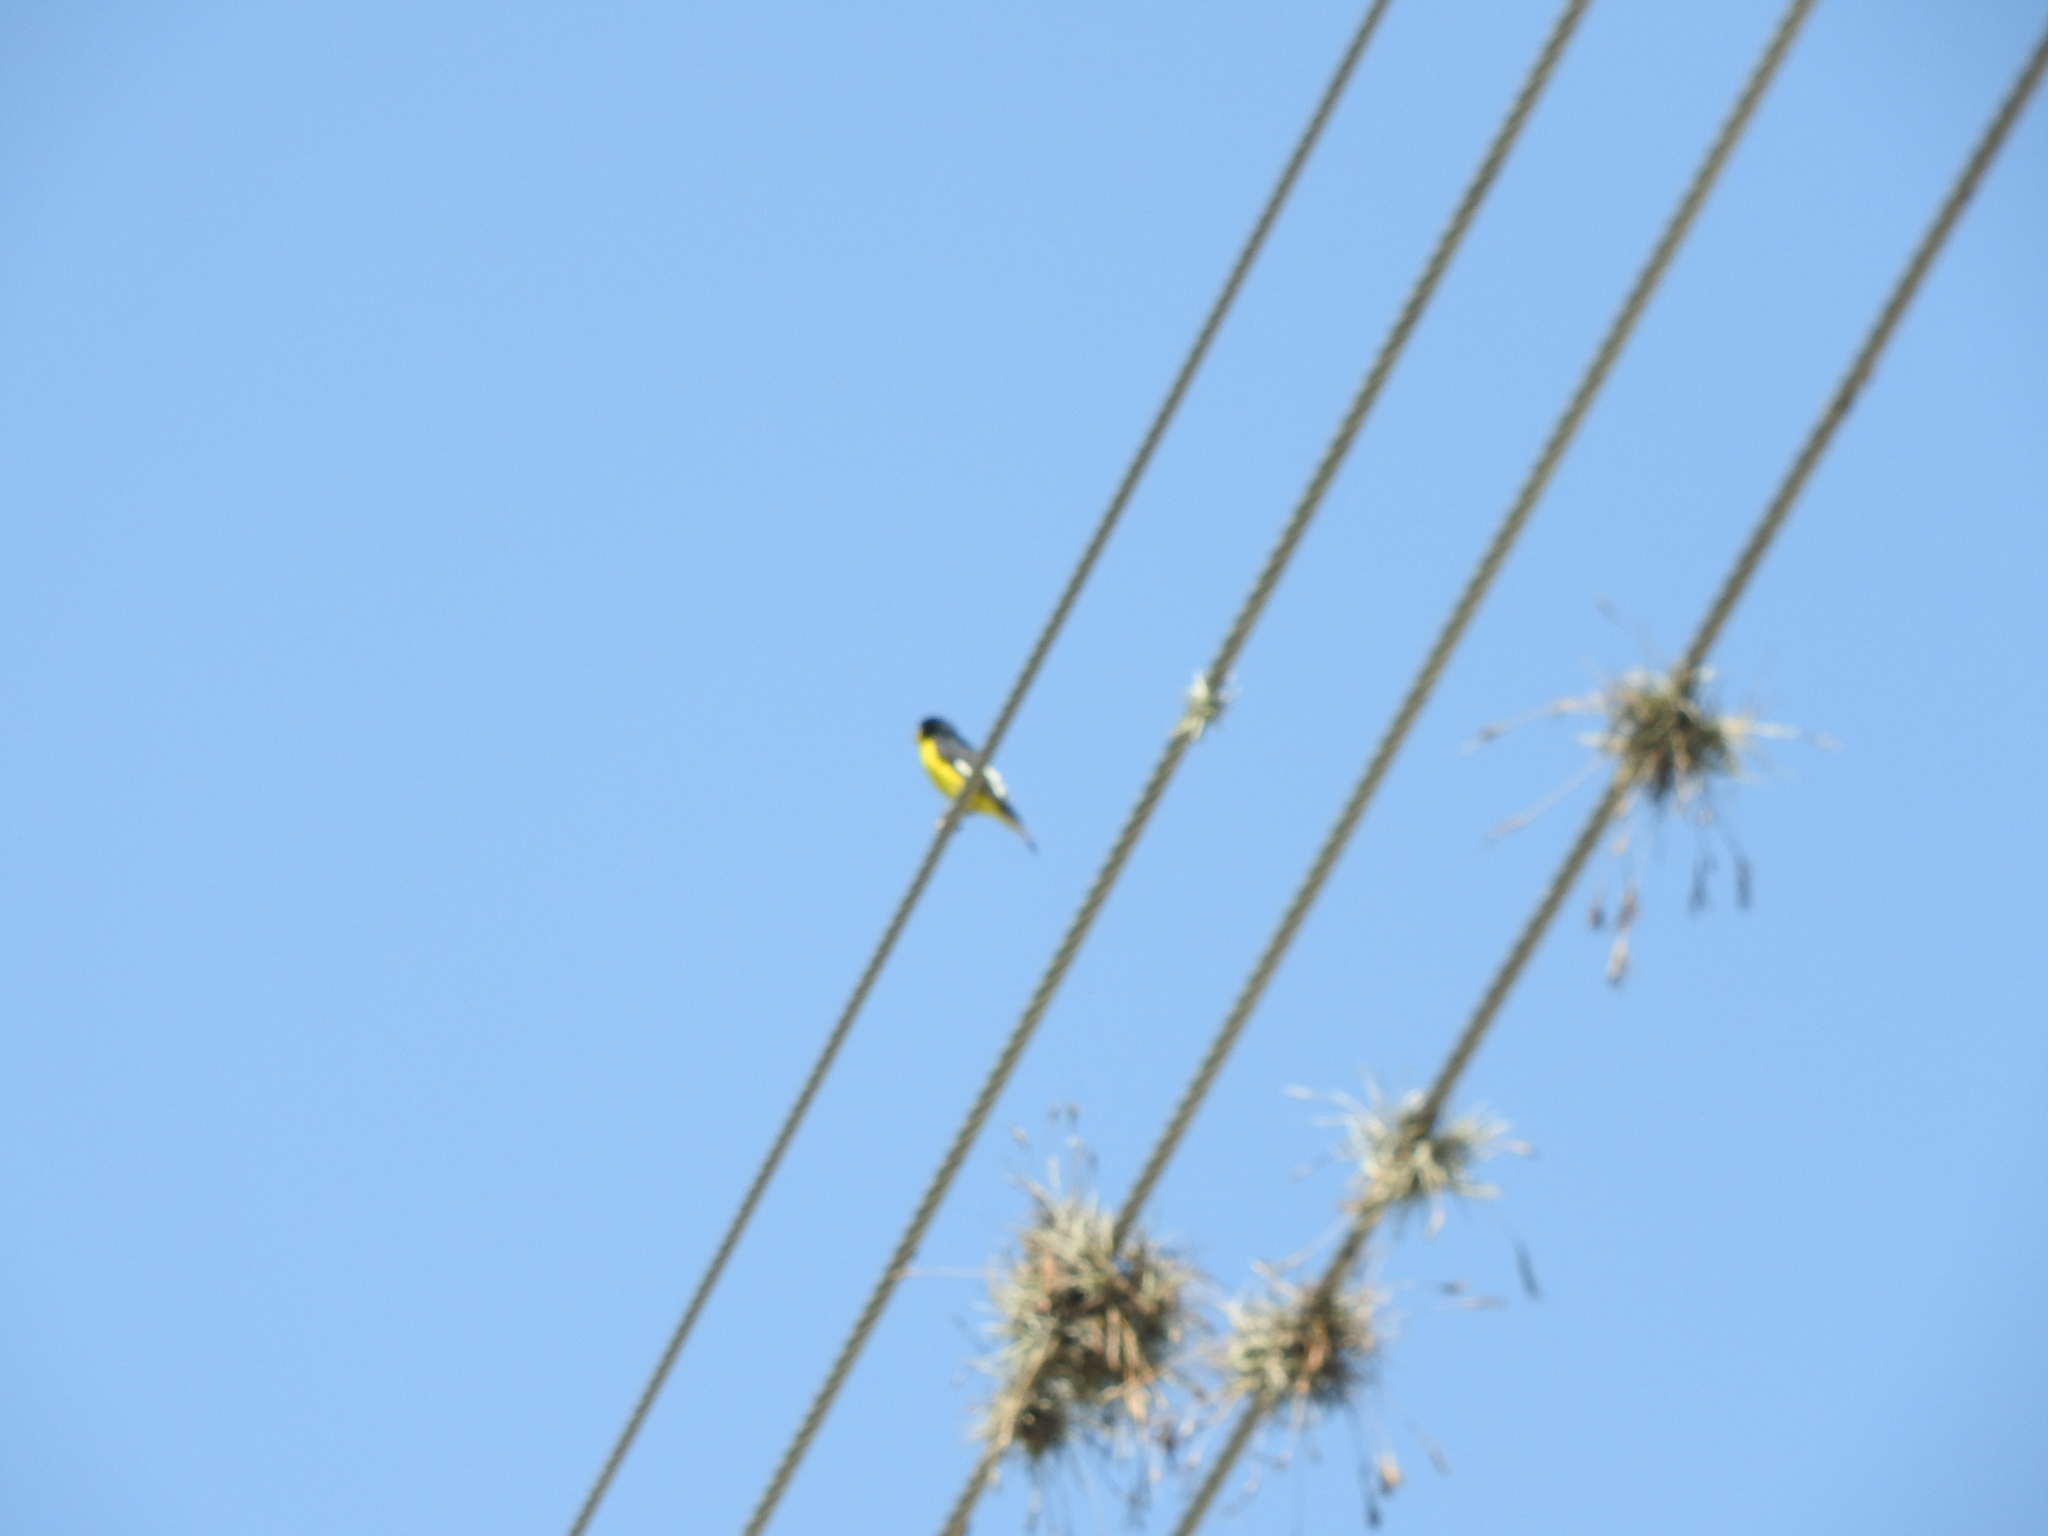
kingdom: Animalia
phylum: Chordata
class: Aves
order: Passeriformes
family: Fringillidae
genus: Spinus
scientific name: Spinus psaltria
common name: Lesser goldfinch
